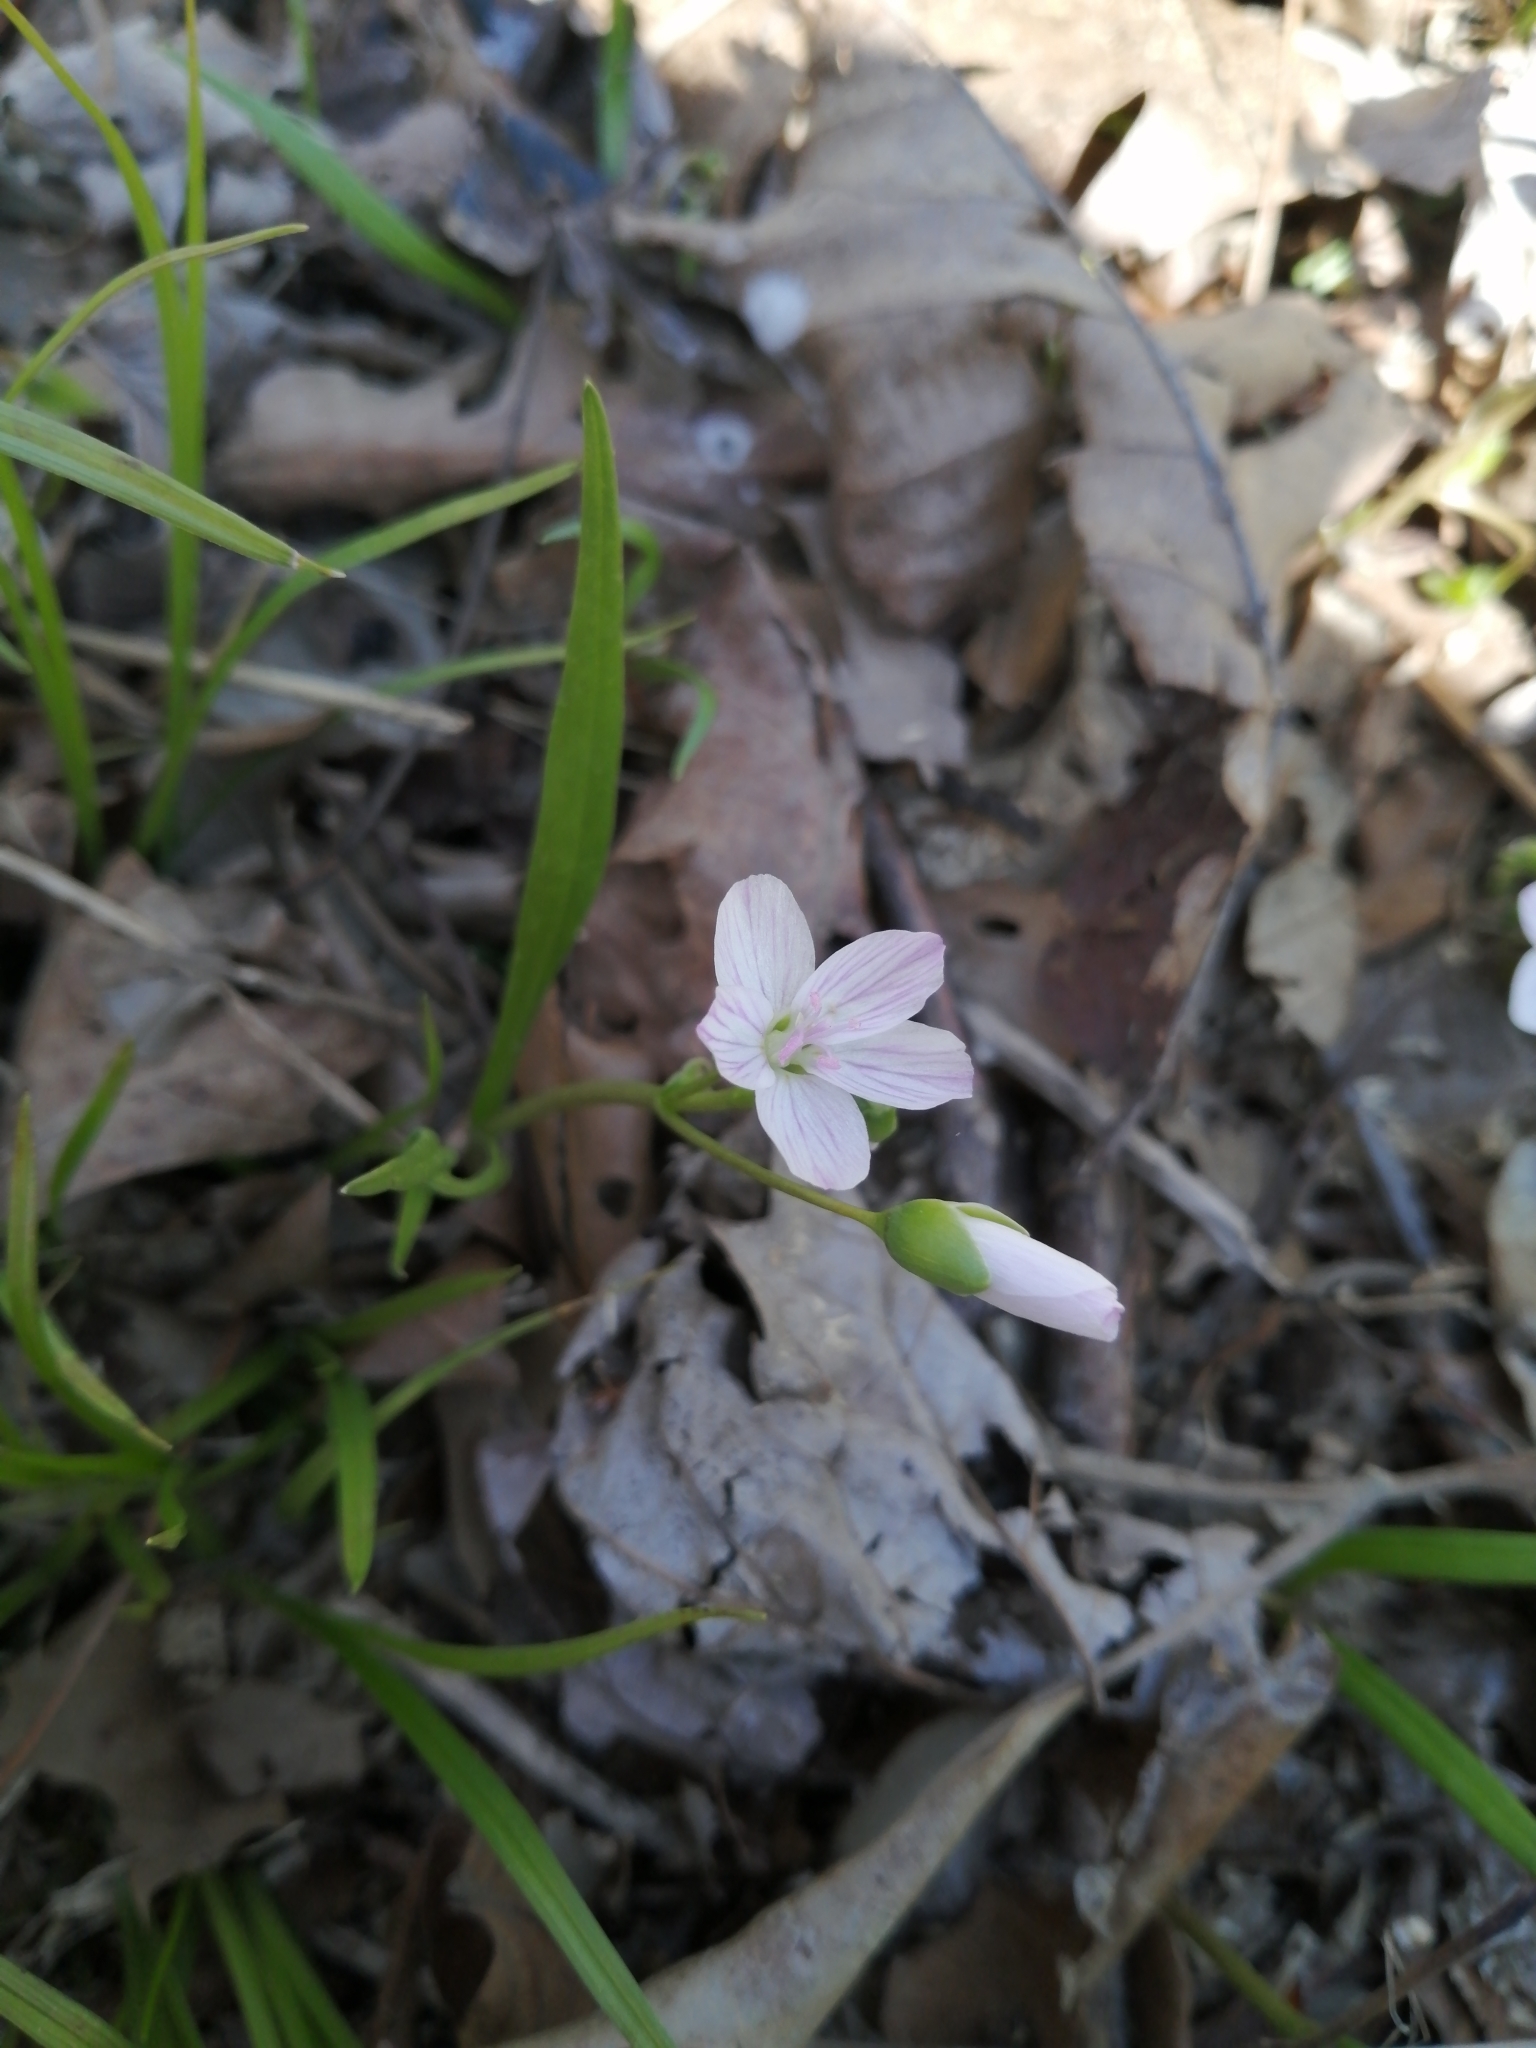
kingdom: Plantae
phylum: Tracheophyta
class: Magnoliopsida
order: Caryophyllales
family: Montiaceae
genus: Claytonia
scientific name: Claytonia virginica
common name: Virginia springbeauty
